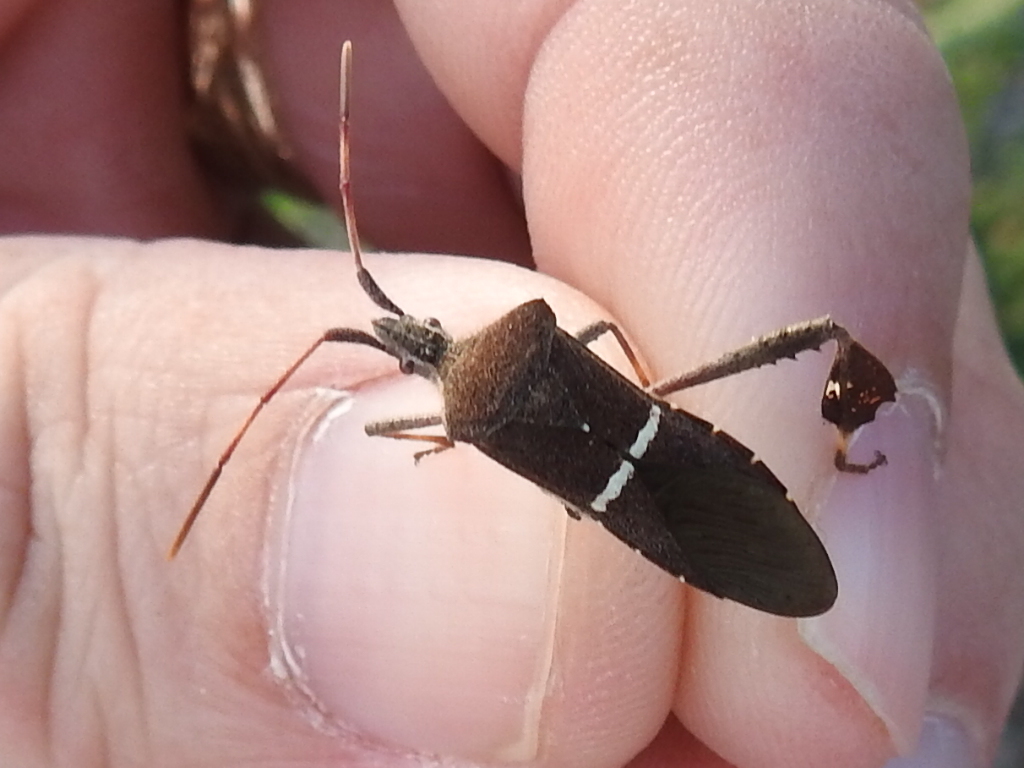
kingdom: Animalia
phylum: Arthropoda
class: Insecta
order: Hemiptera
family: Coreidae
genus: Leptoglossus
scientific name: Leptoglossus phyllopus
